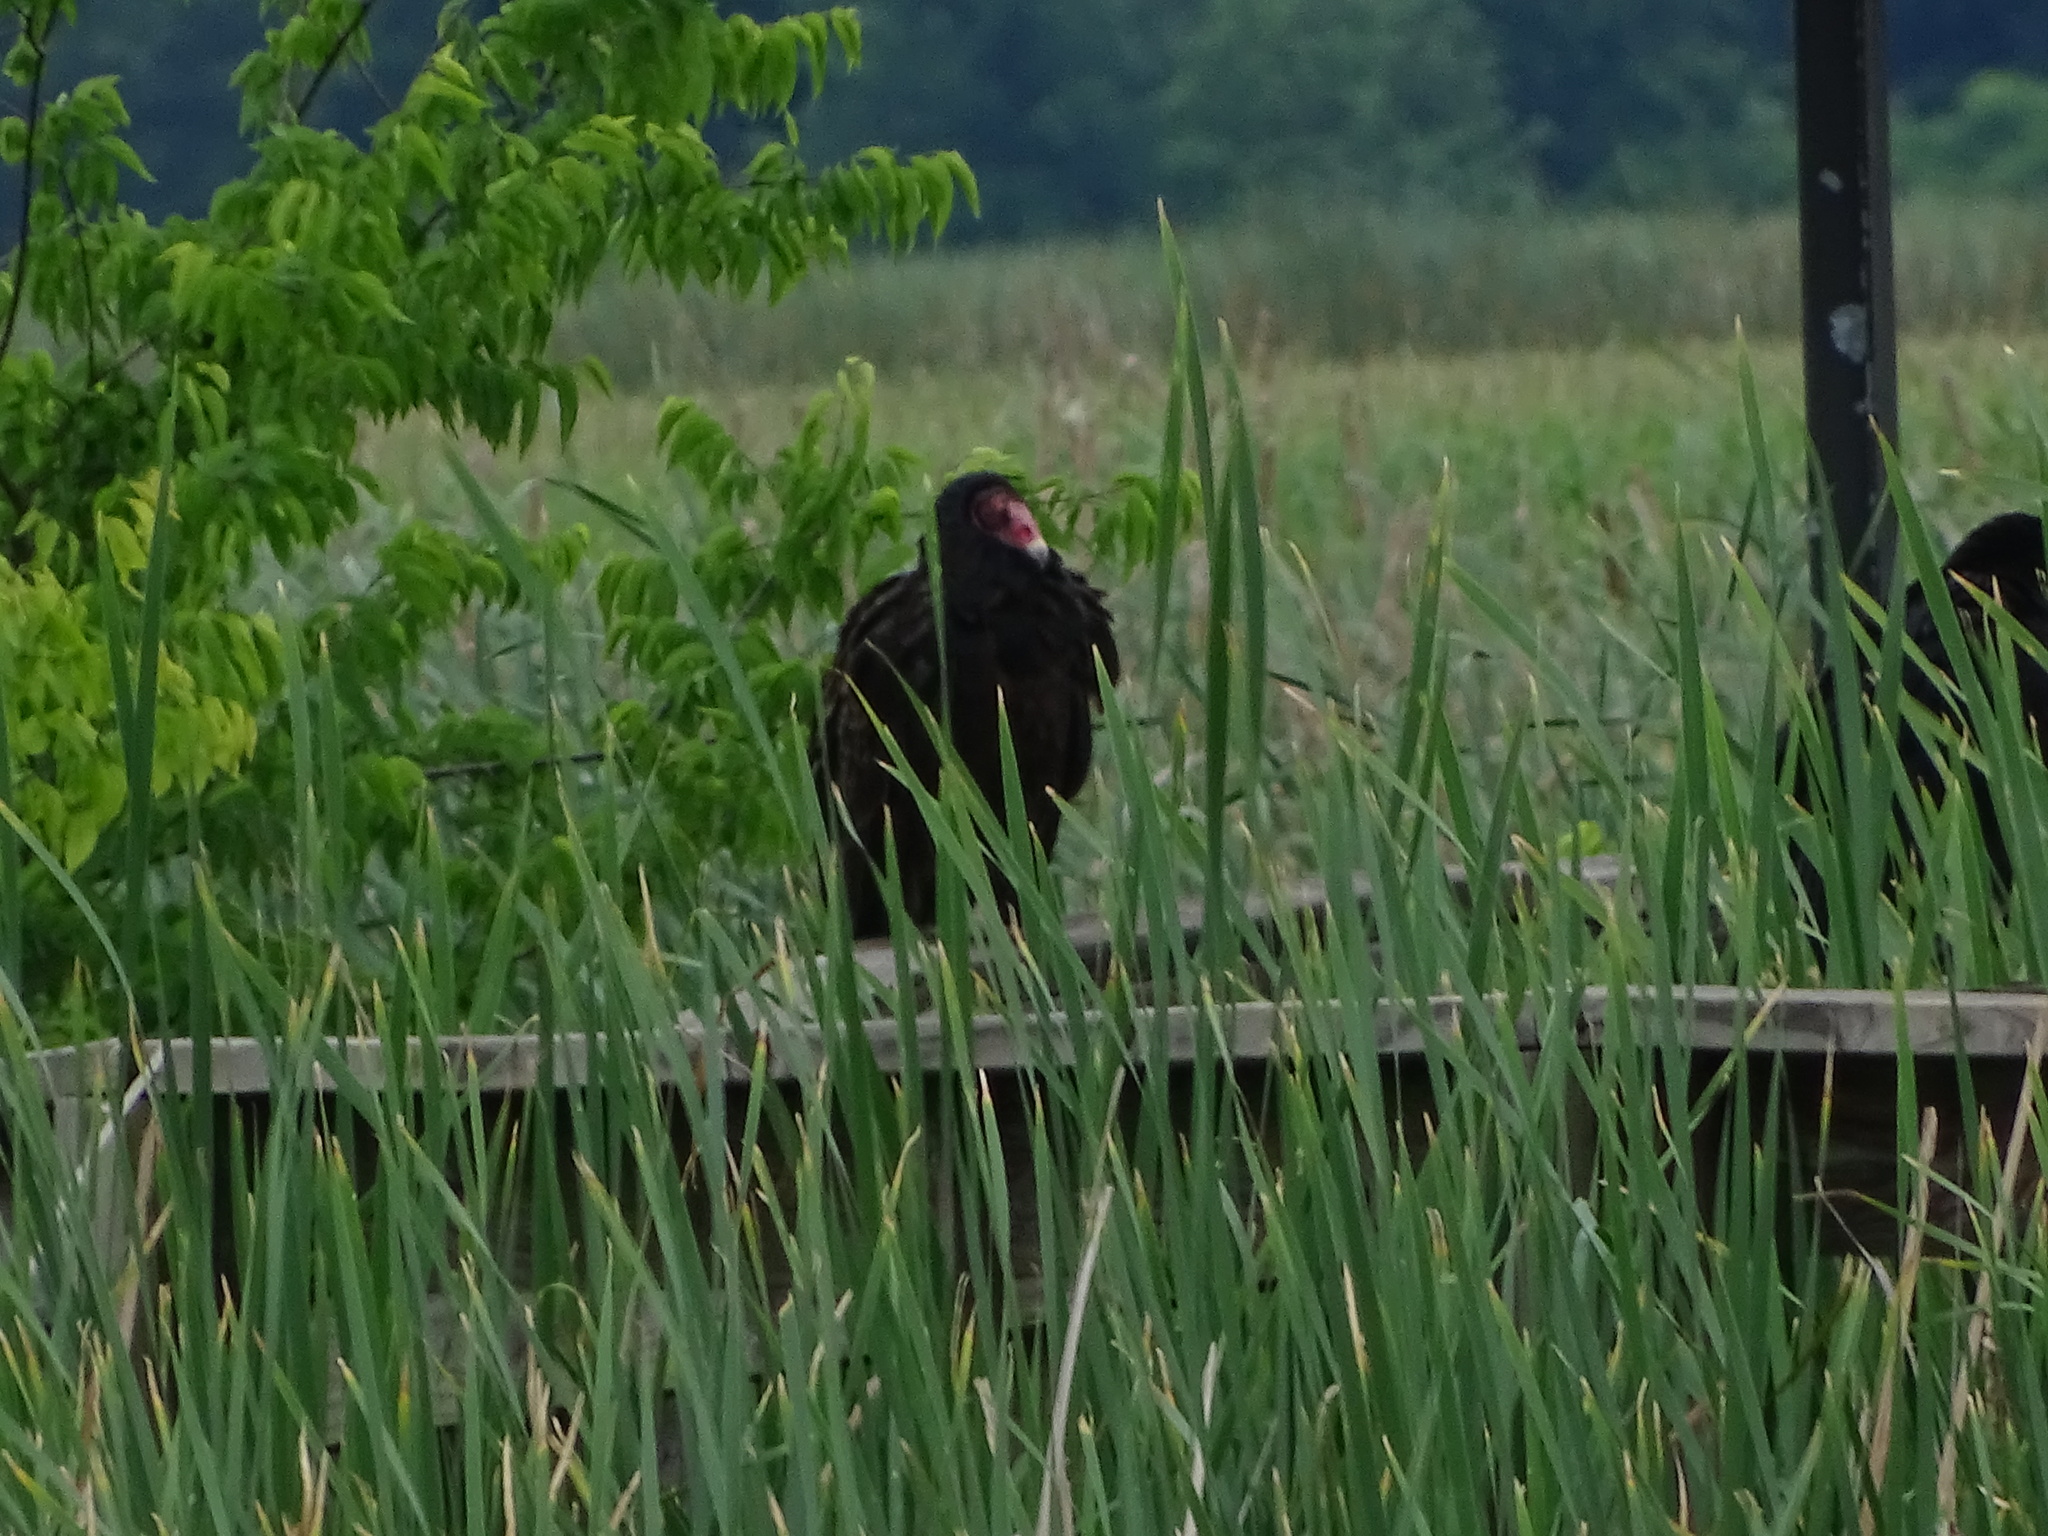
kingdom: Animalia
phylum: Chordata
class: Aves
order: Accipitriformes
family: Cathartidae
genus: Cathartes
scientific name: Cathartes aura
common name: Turkey vulture
